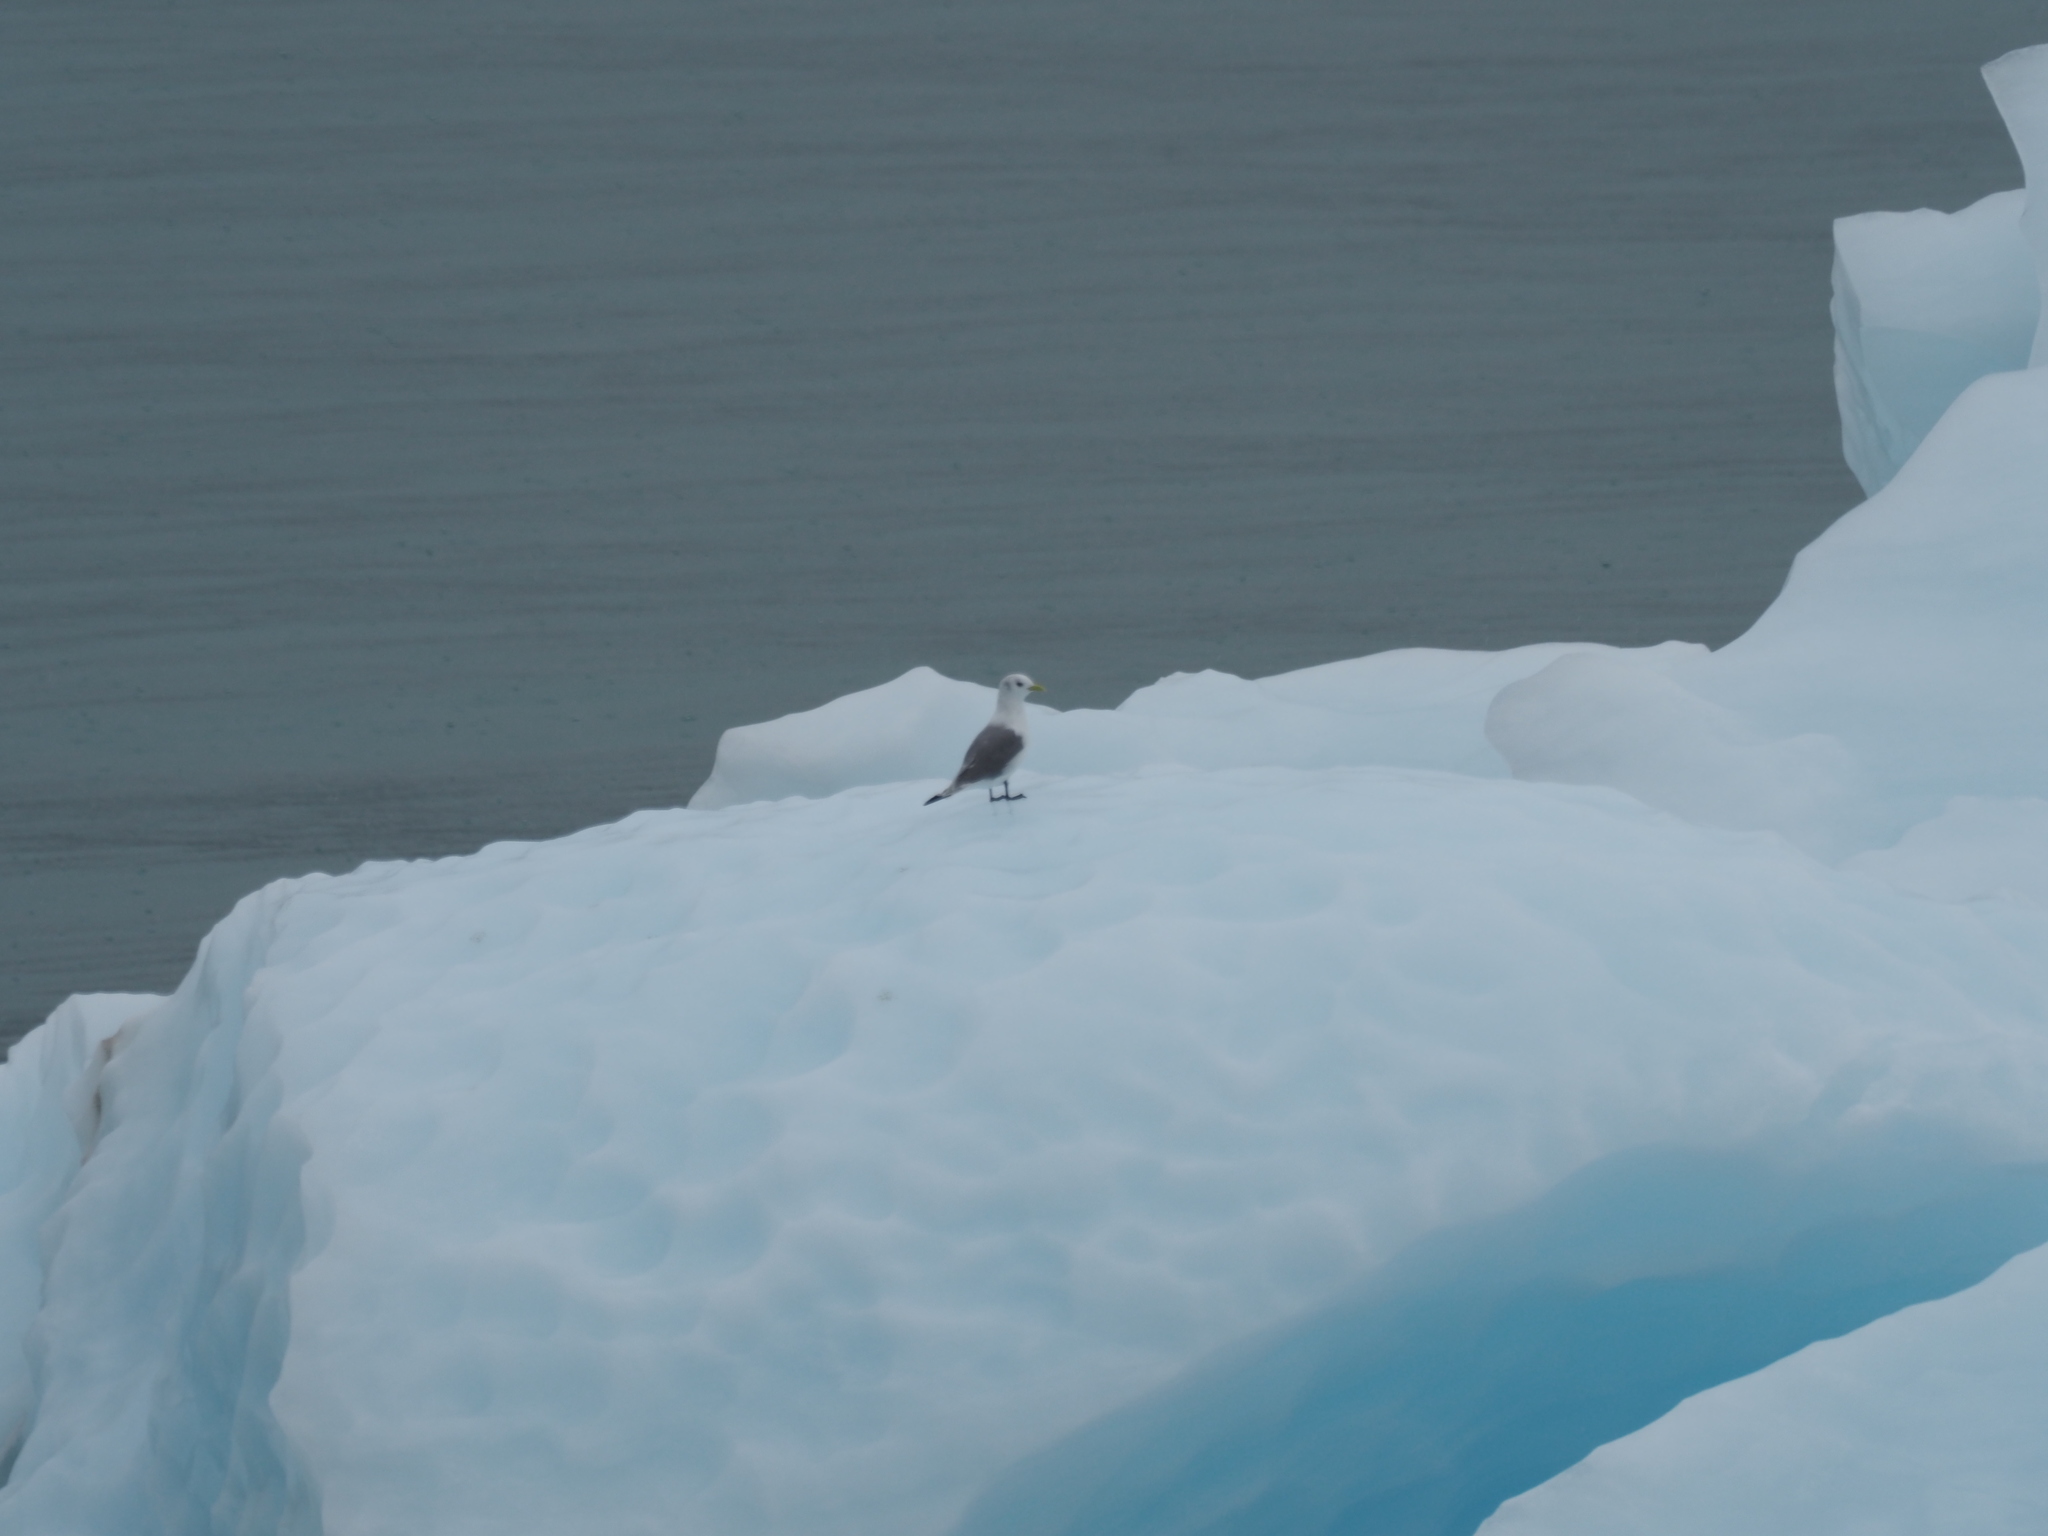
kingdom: Animalia
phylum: Chordata
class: Aves
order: Charadriiformes
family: Laridae
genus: Rissa
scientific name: Rissa tridactyla
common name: Black-legged kittiwake
